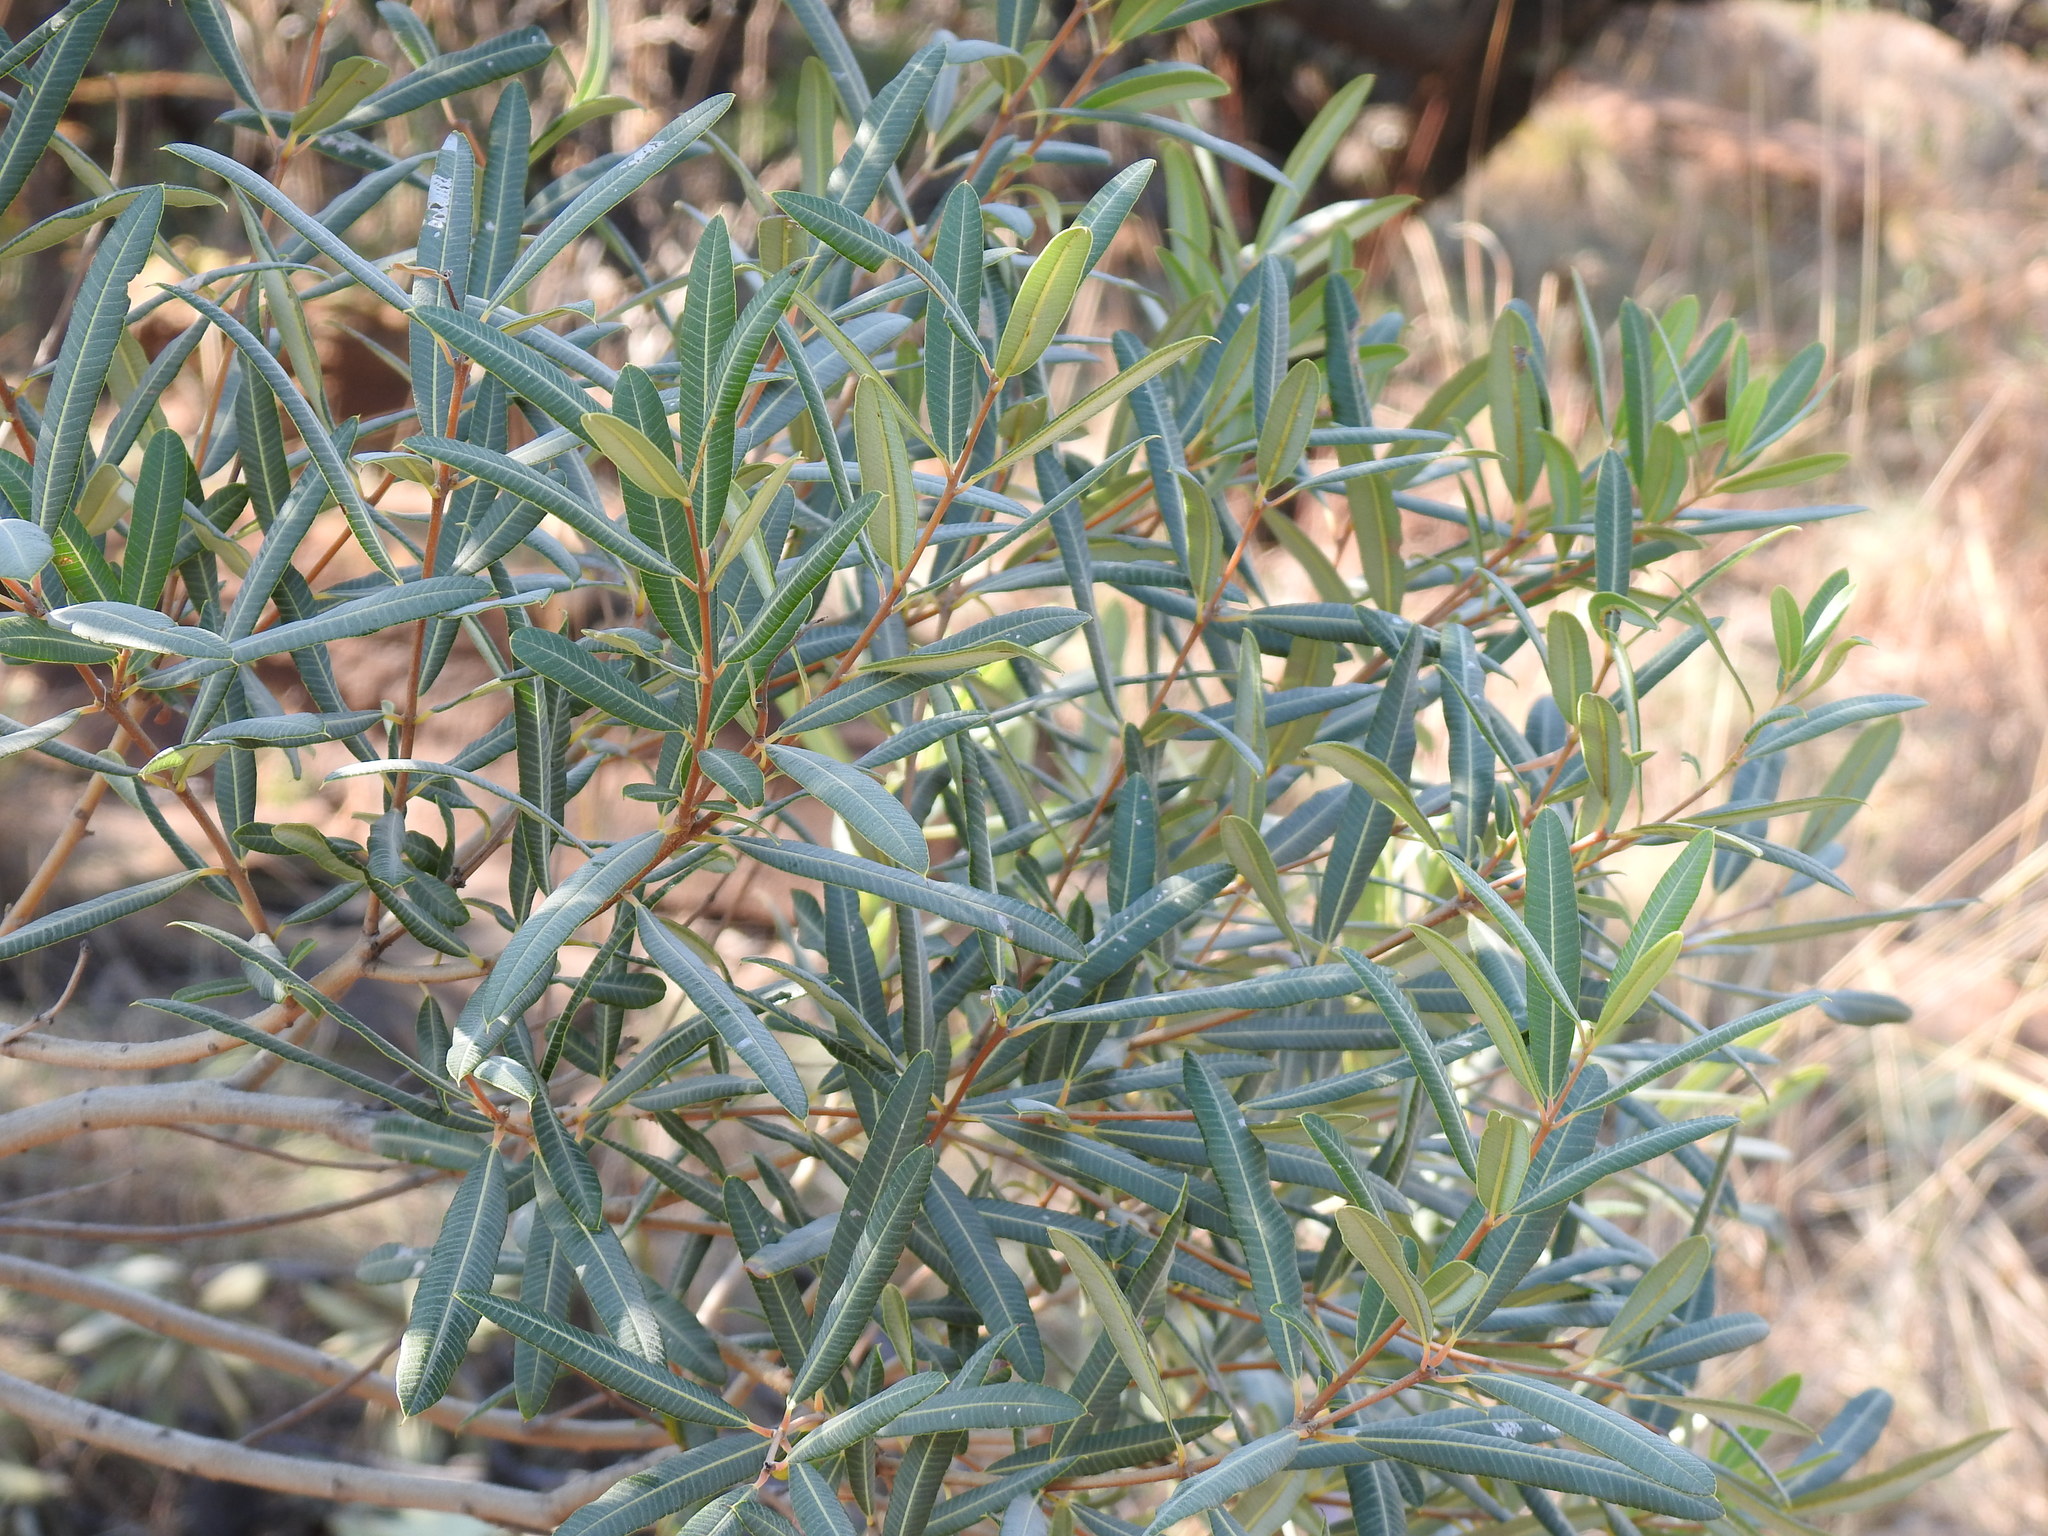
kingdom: Plantae
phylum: Tracheophyta
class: Magnoliopsida
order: Sapindales
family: Anacardiaceae
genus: Ozoroa
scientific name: Ozoroa paniculosa
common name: Bushveld ozoroa
